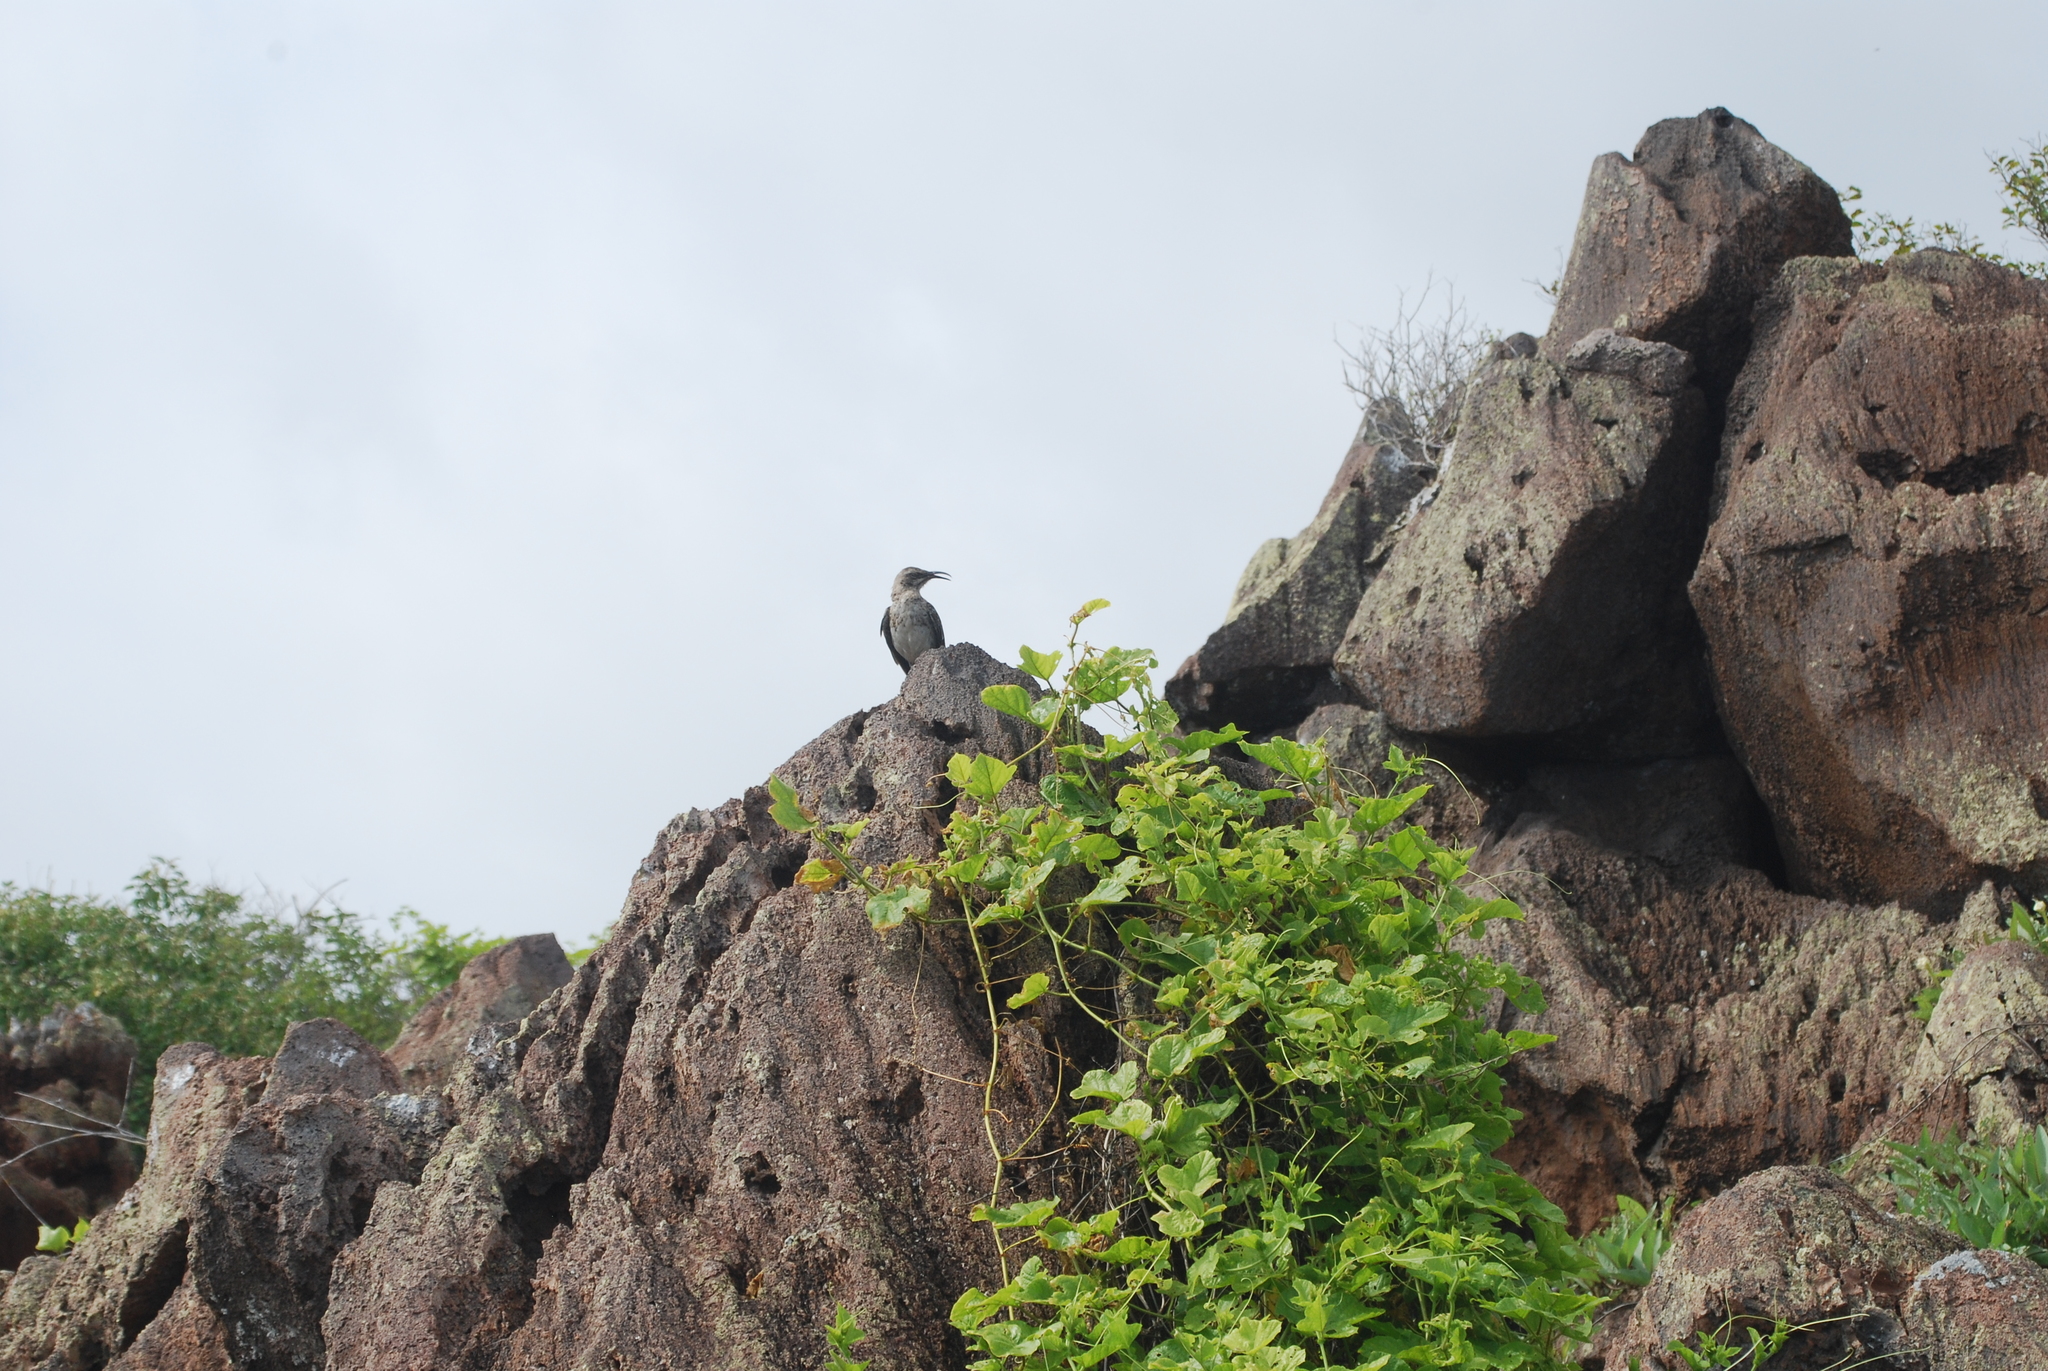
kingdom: Animalia
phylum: Chordata
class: Aves
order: Passeriformes
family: Mimidae
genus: Mimus
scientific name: Mimus macdonaldi
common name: Espanola mockingbird
